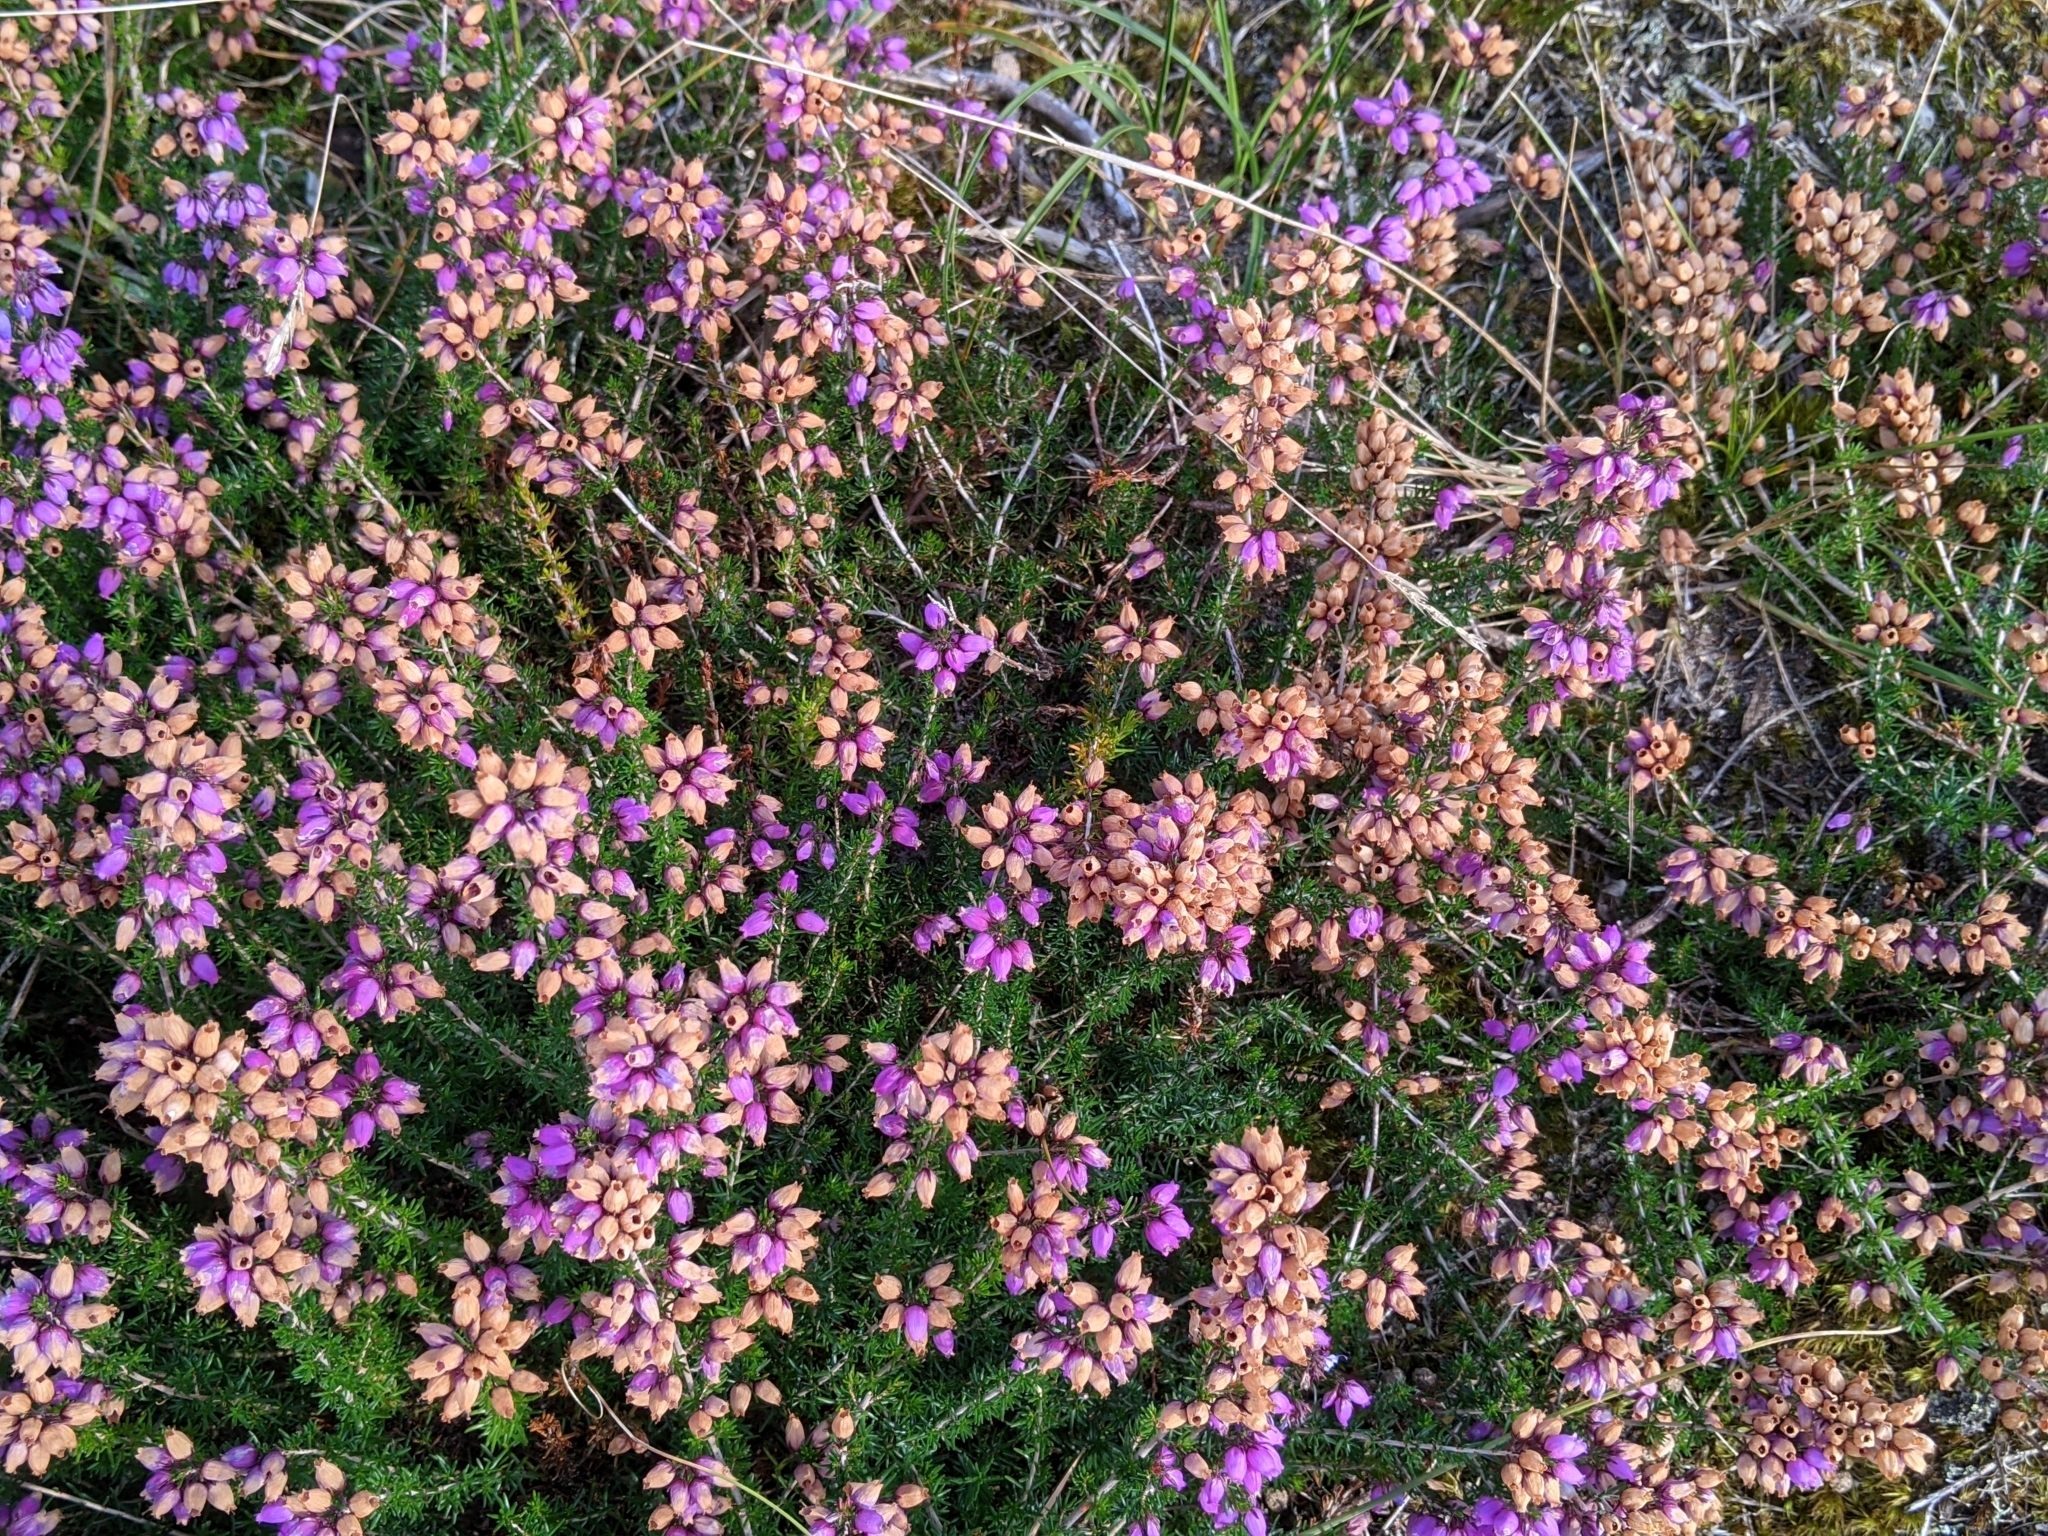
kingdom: Plantae
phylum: Tracheophyta
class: Magnoliopsida
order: Ericales
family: Ericaceae
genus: Erica
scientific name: Erica cinerea
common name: Bell heather
